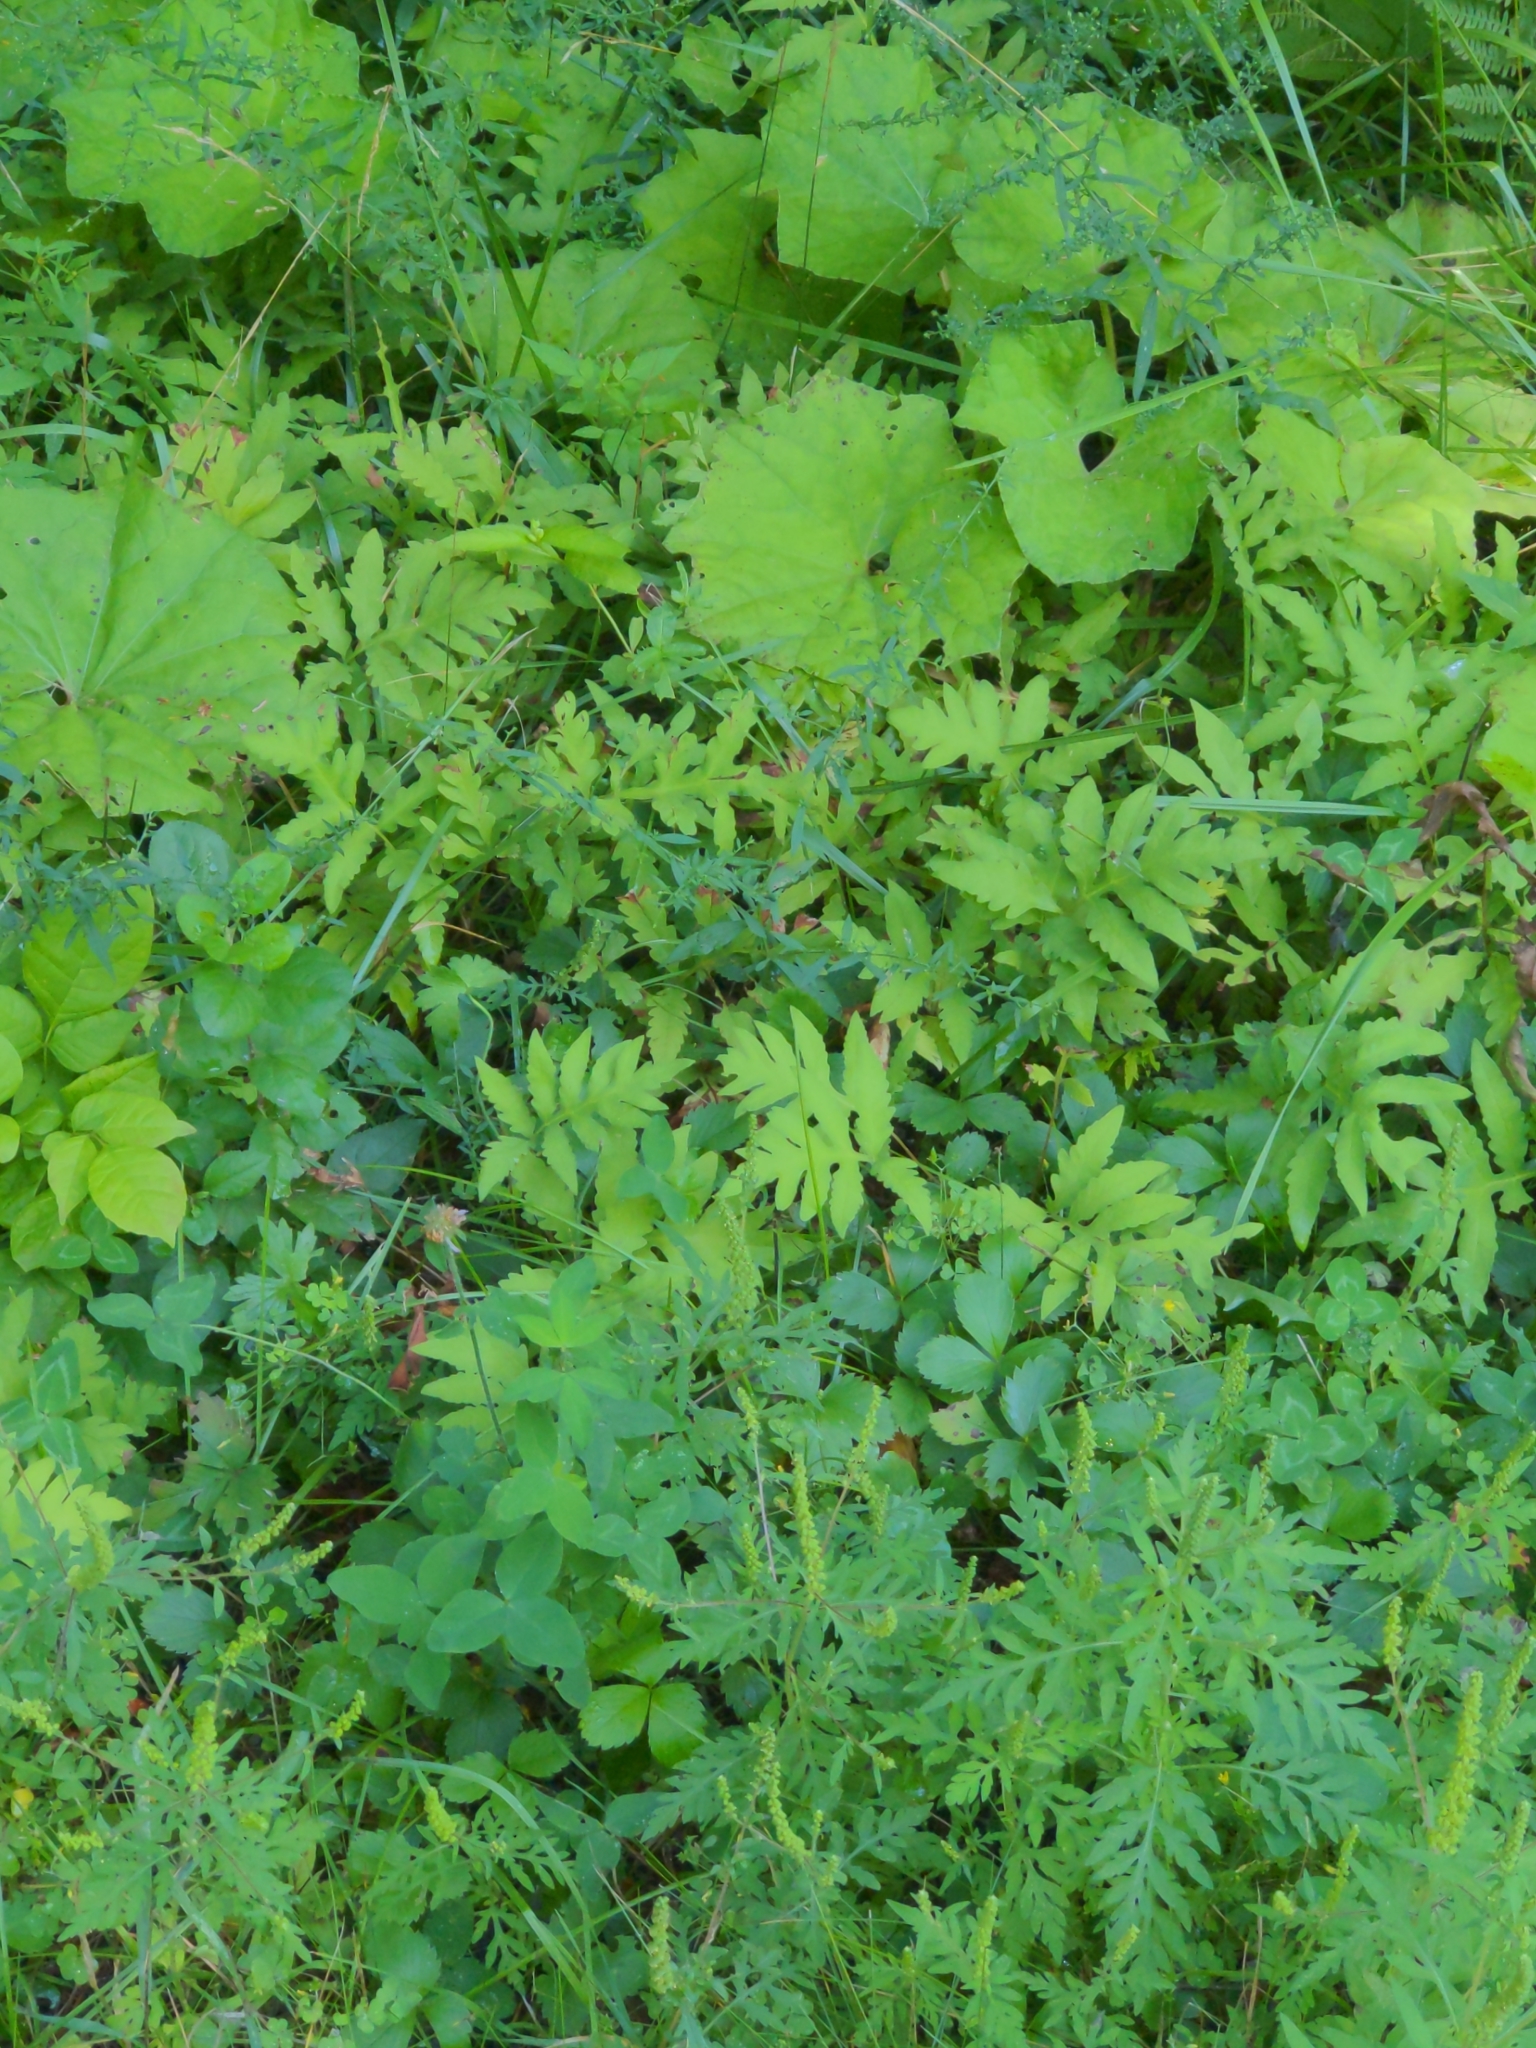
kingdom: Plantae
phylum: Tracheophyta
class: Polypodiopsida
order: Polypodiales
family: Onocleaceae
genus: Onoclea
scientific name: Onoclea sensibilis
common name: Sensitive fern
